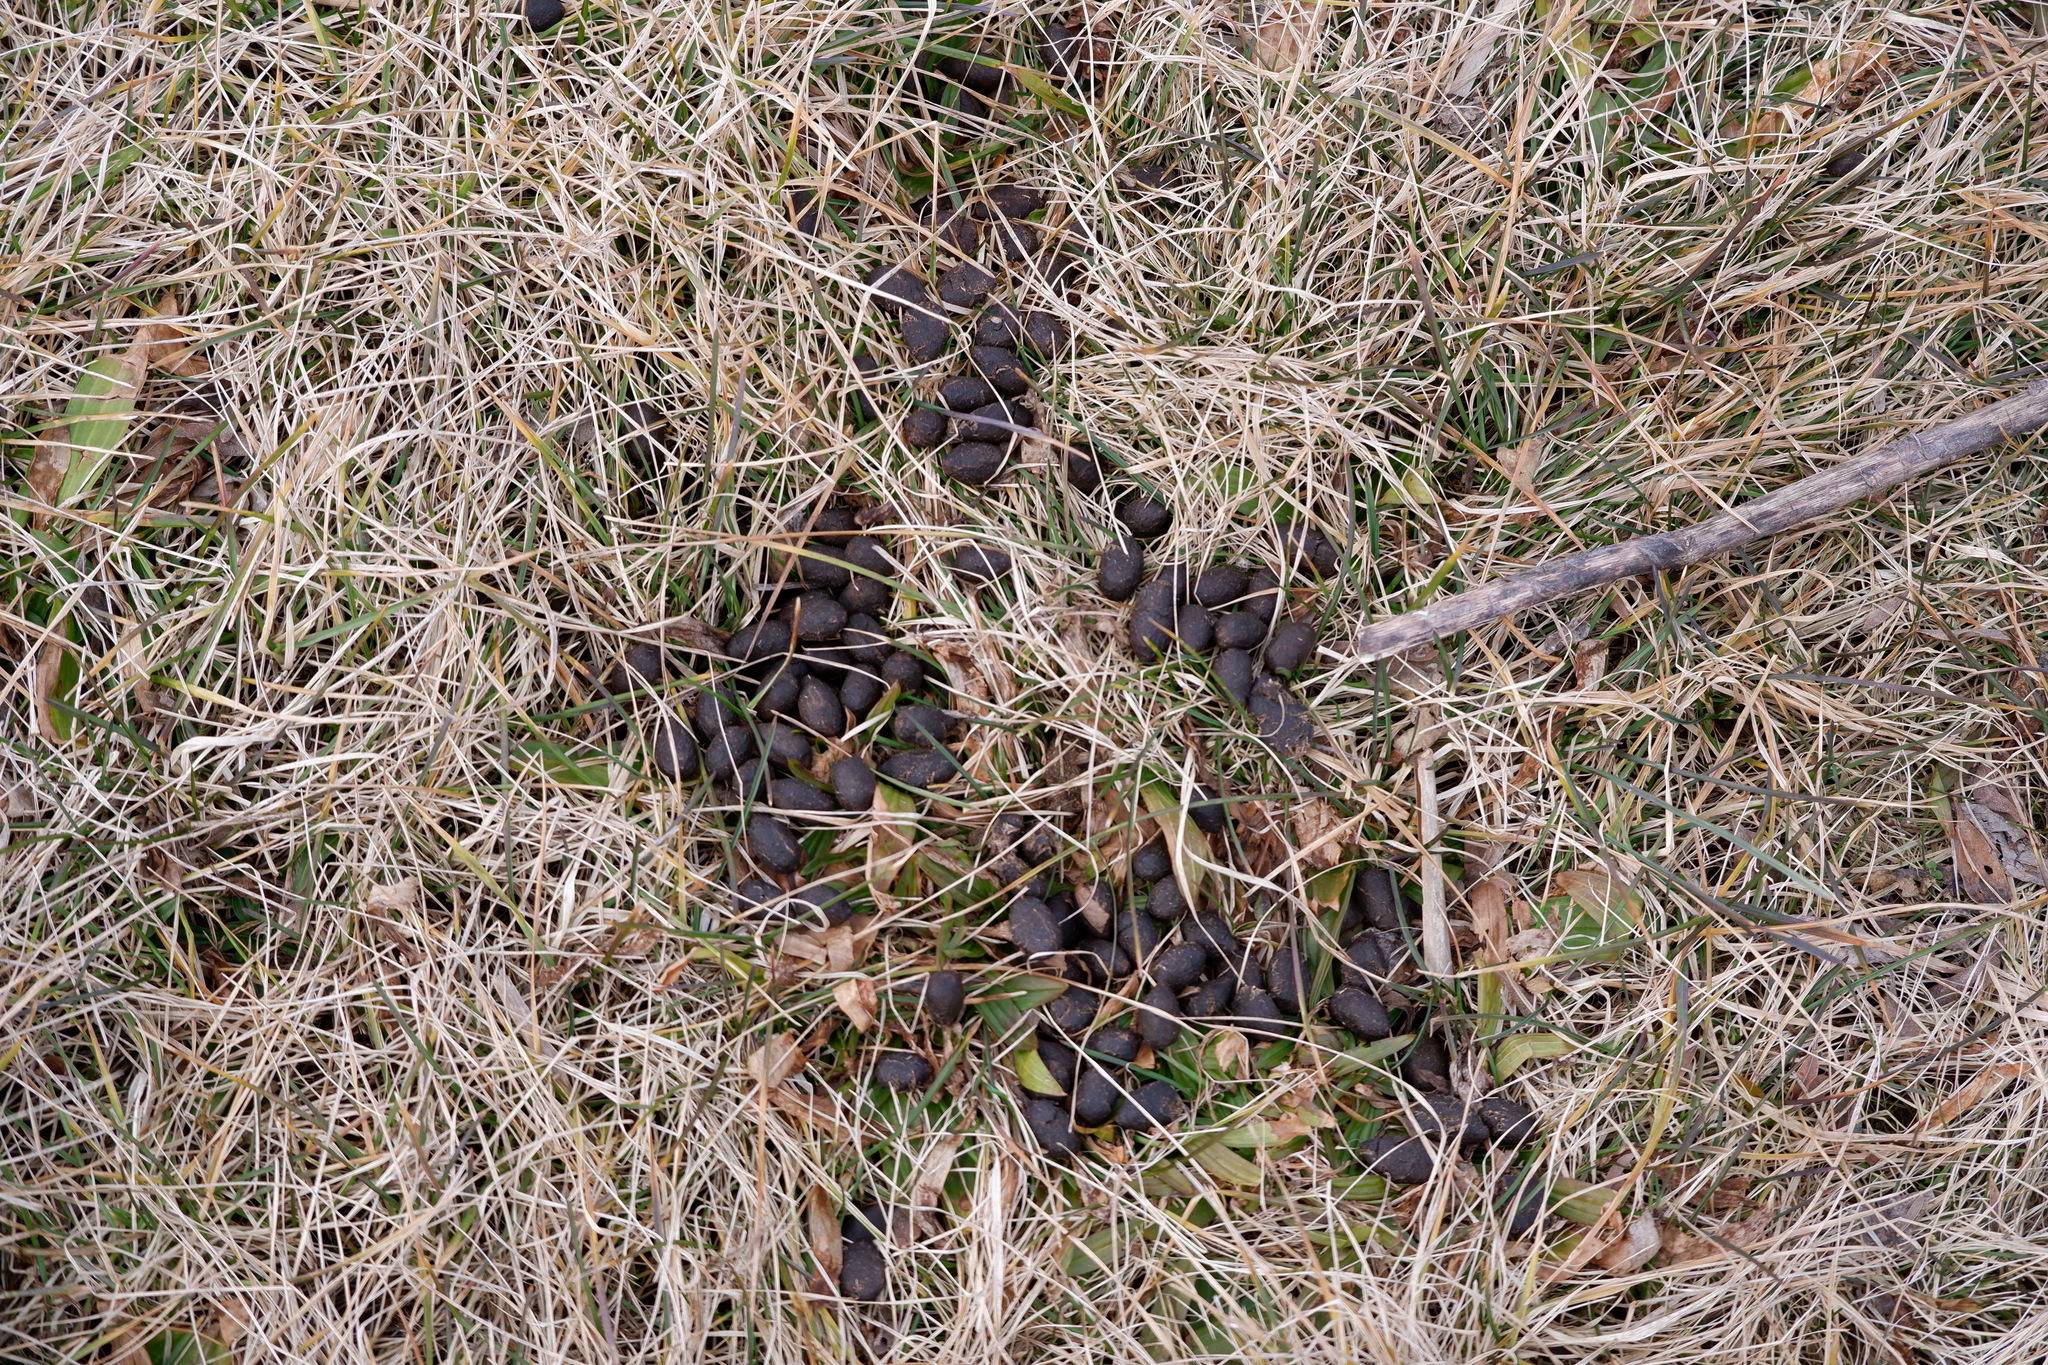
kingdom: Animalia
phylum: Chordata
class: Mammalia
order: Artiodactyla
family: Cervidae
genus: Odocoileus
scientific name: Odocoileus virginianus
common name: White-tailed deer
